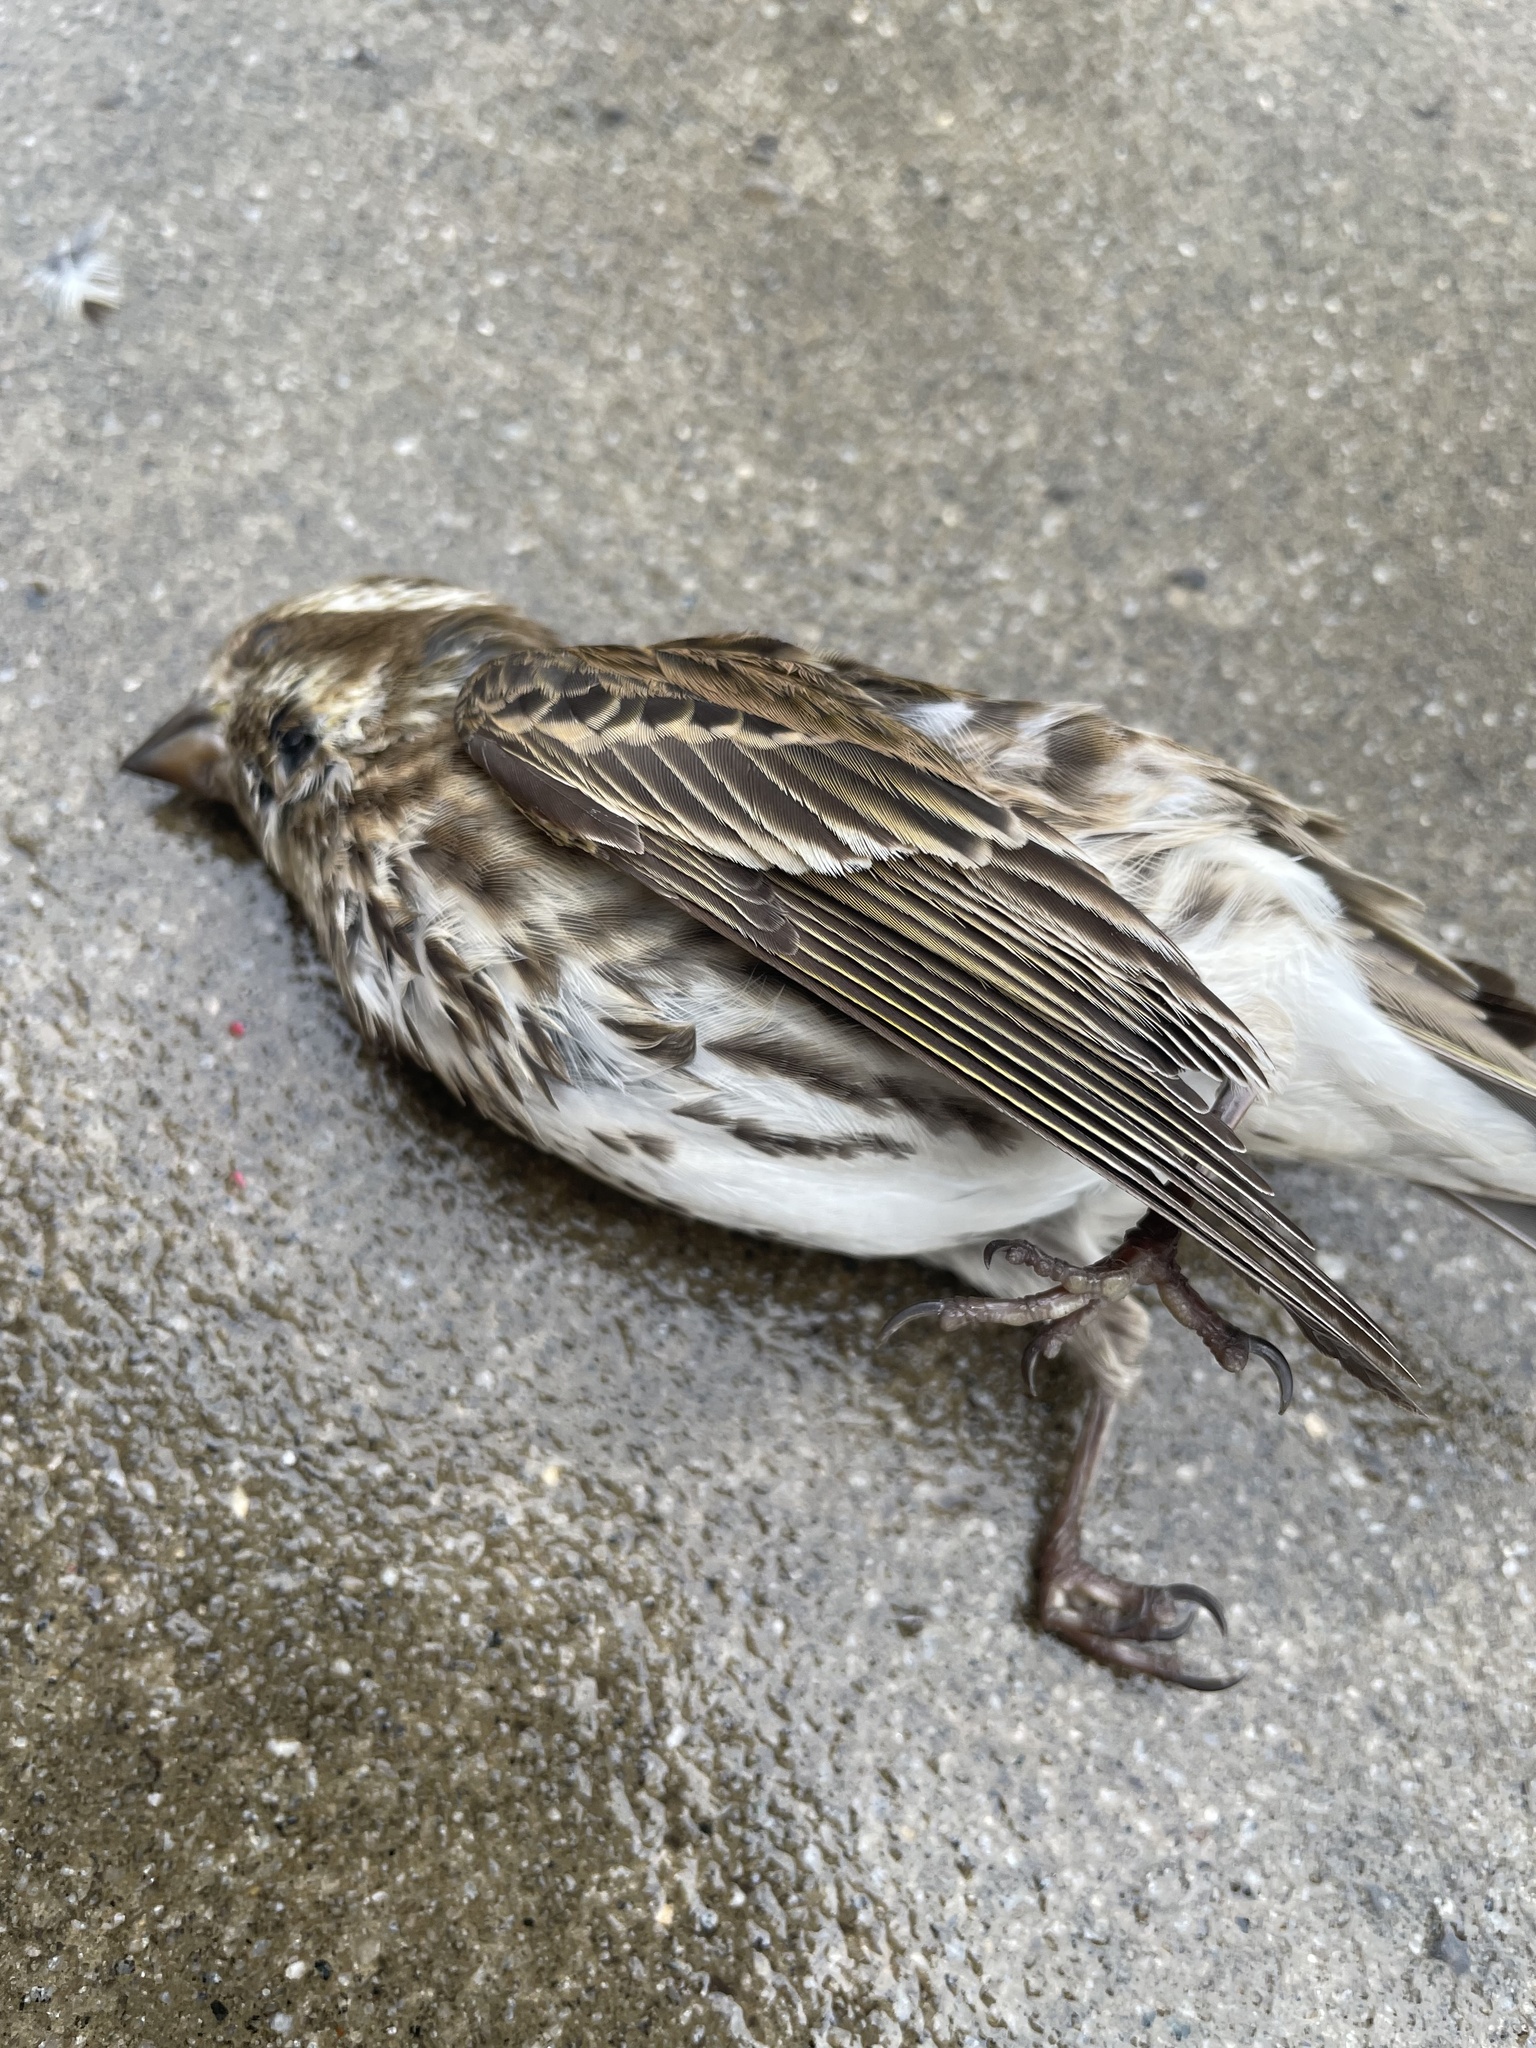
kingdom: Animalia
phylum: Chordata
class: Aves
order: Passeriformes
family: Fringillidae
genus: Haemorhous
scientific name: Haemorhous purpureus
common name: Purple finch
